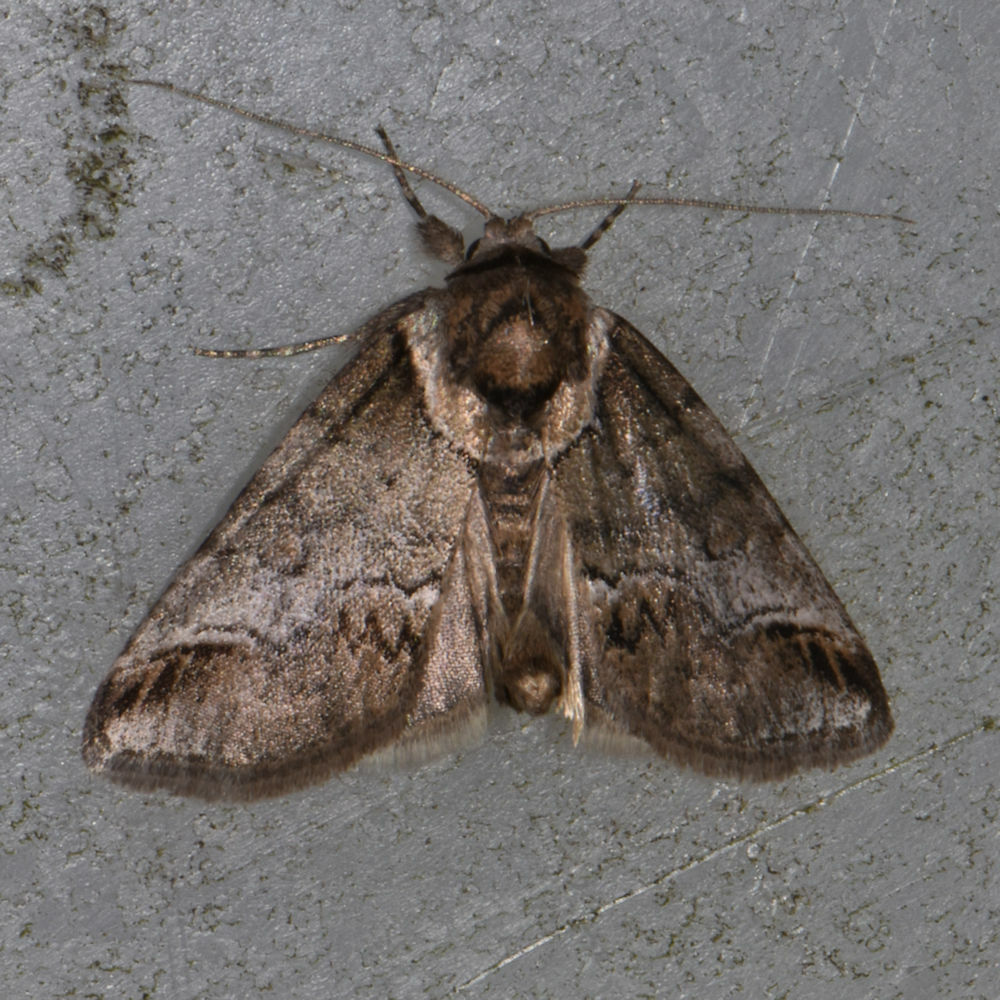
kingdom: Animalia
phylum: Arthropoda
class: Insecta
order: Lepidoptera
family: Nolidae
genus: Baileya
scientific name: Baileya australis
